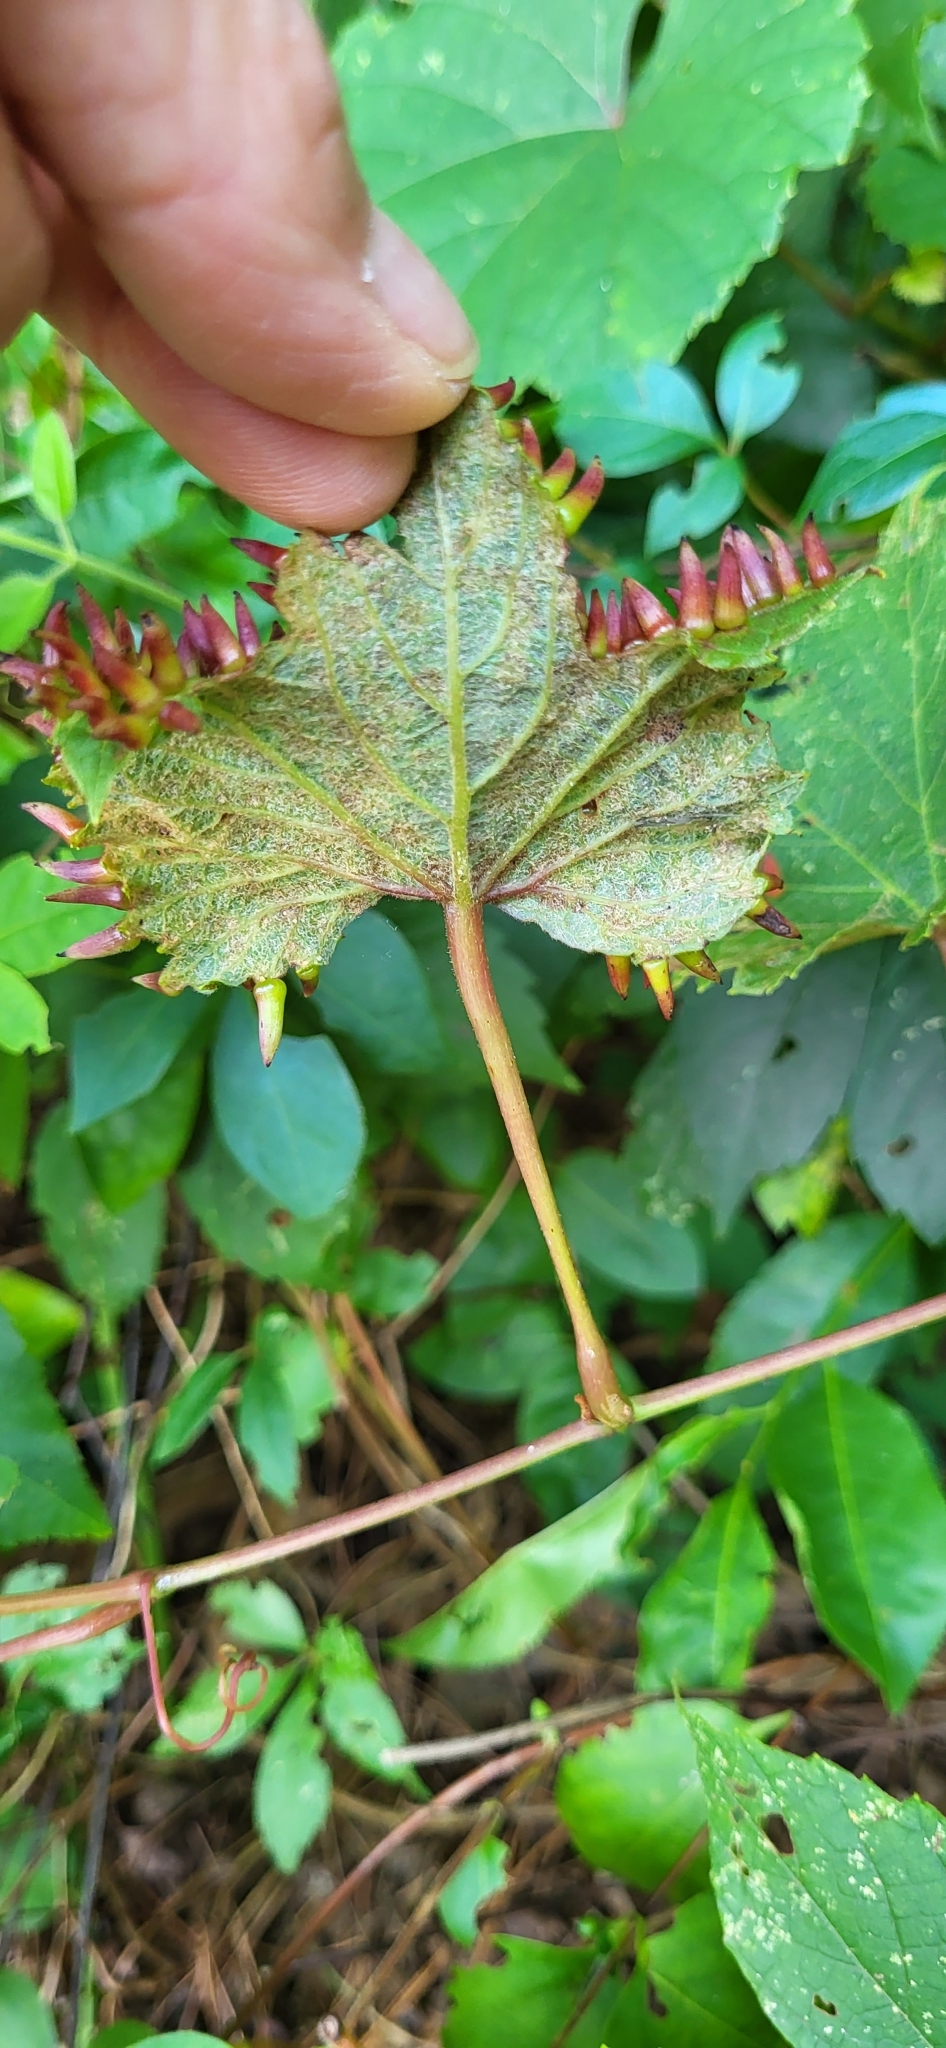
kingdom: Animalia
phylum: Arthropoda
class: Insecta
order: Diptera
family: Cecidomyiidae
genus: Ampelomyia
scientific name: Ampelomyia viticola
